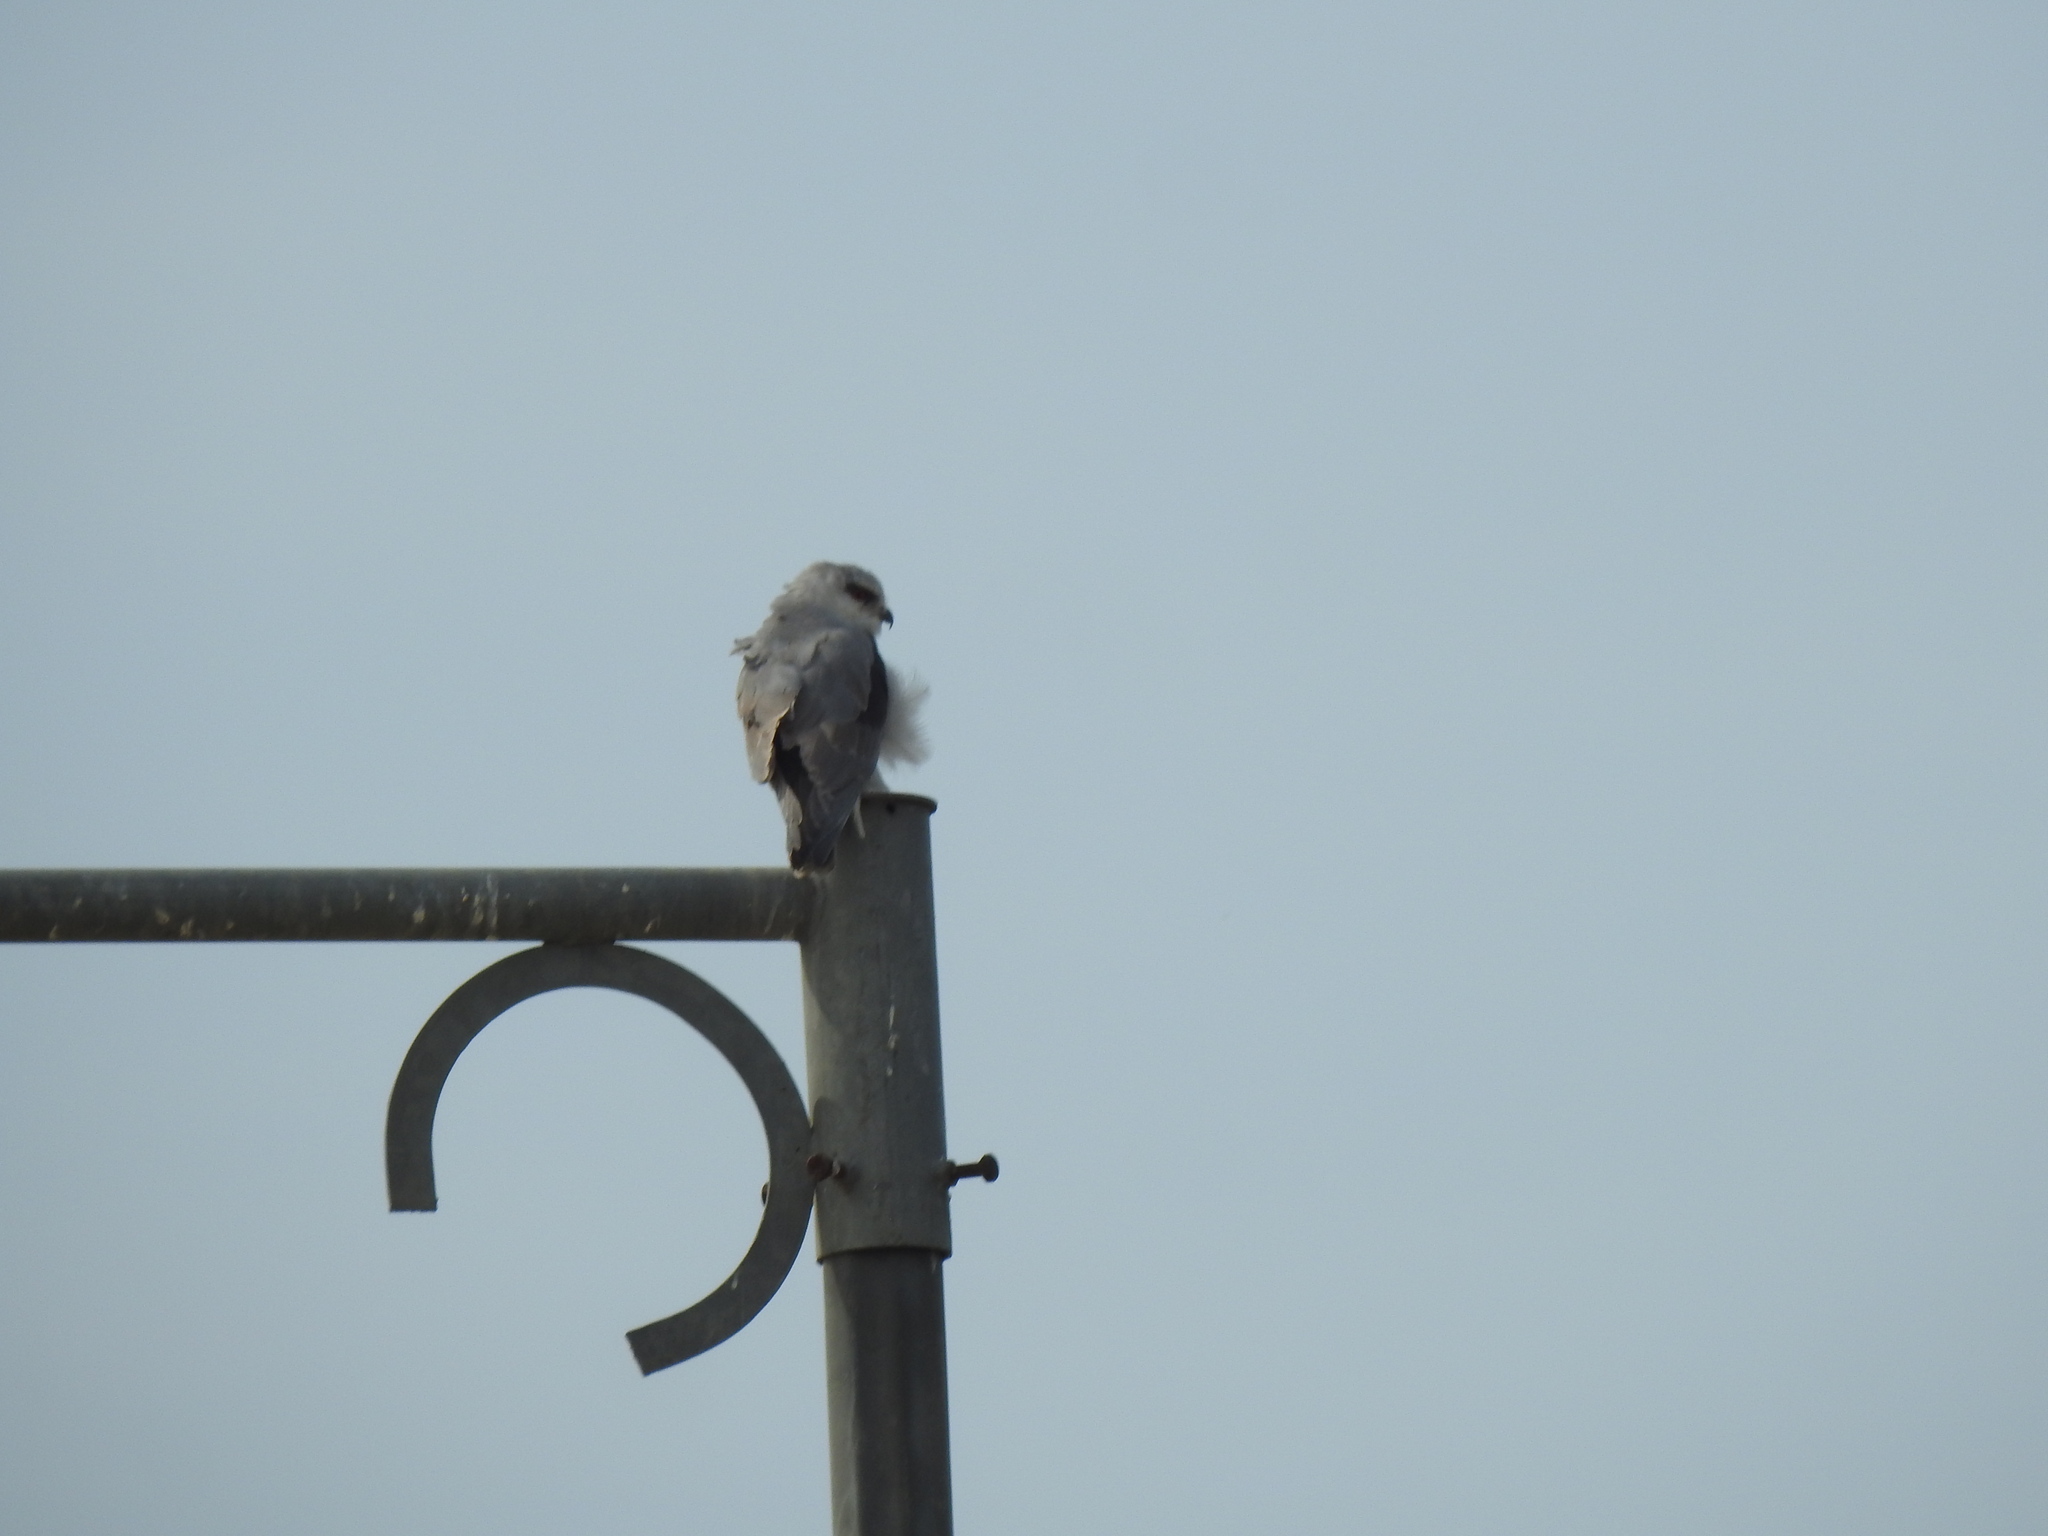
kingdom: Animalia
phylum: Chordata
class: Aves
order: Accipitriformes
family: Accipitridae
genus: Elanus
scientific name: Elanus caeruleus
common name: Black-winged kite
